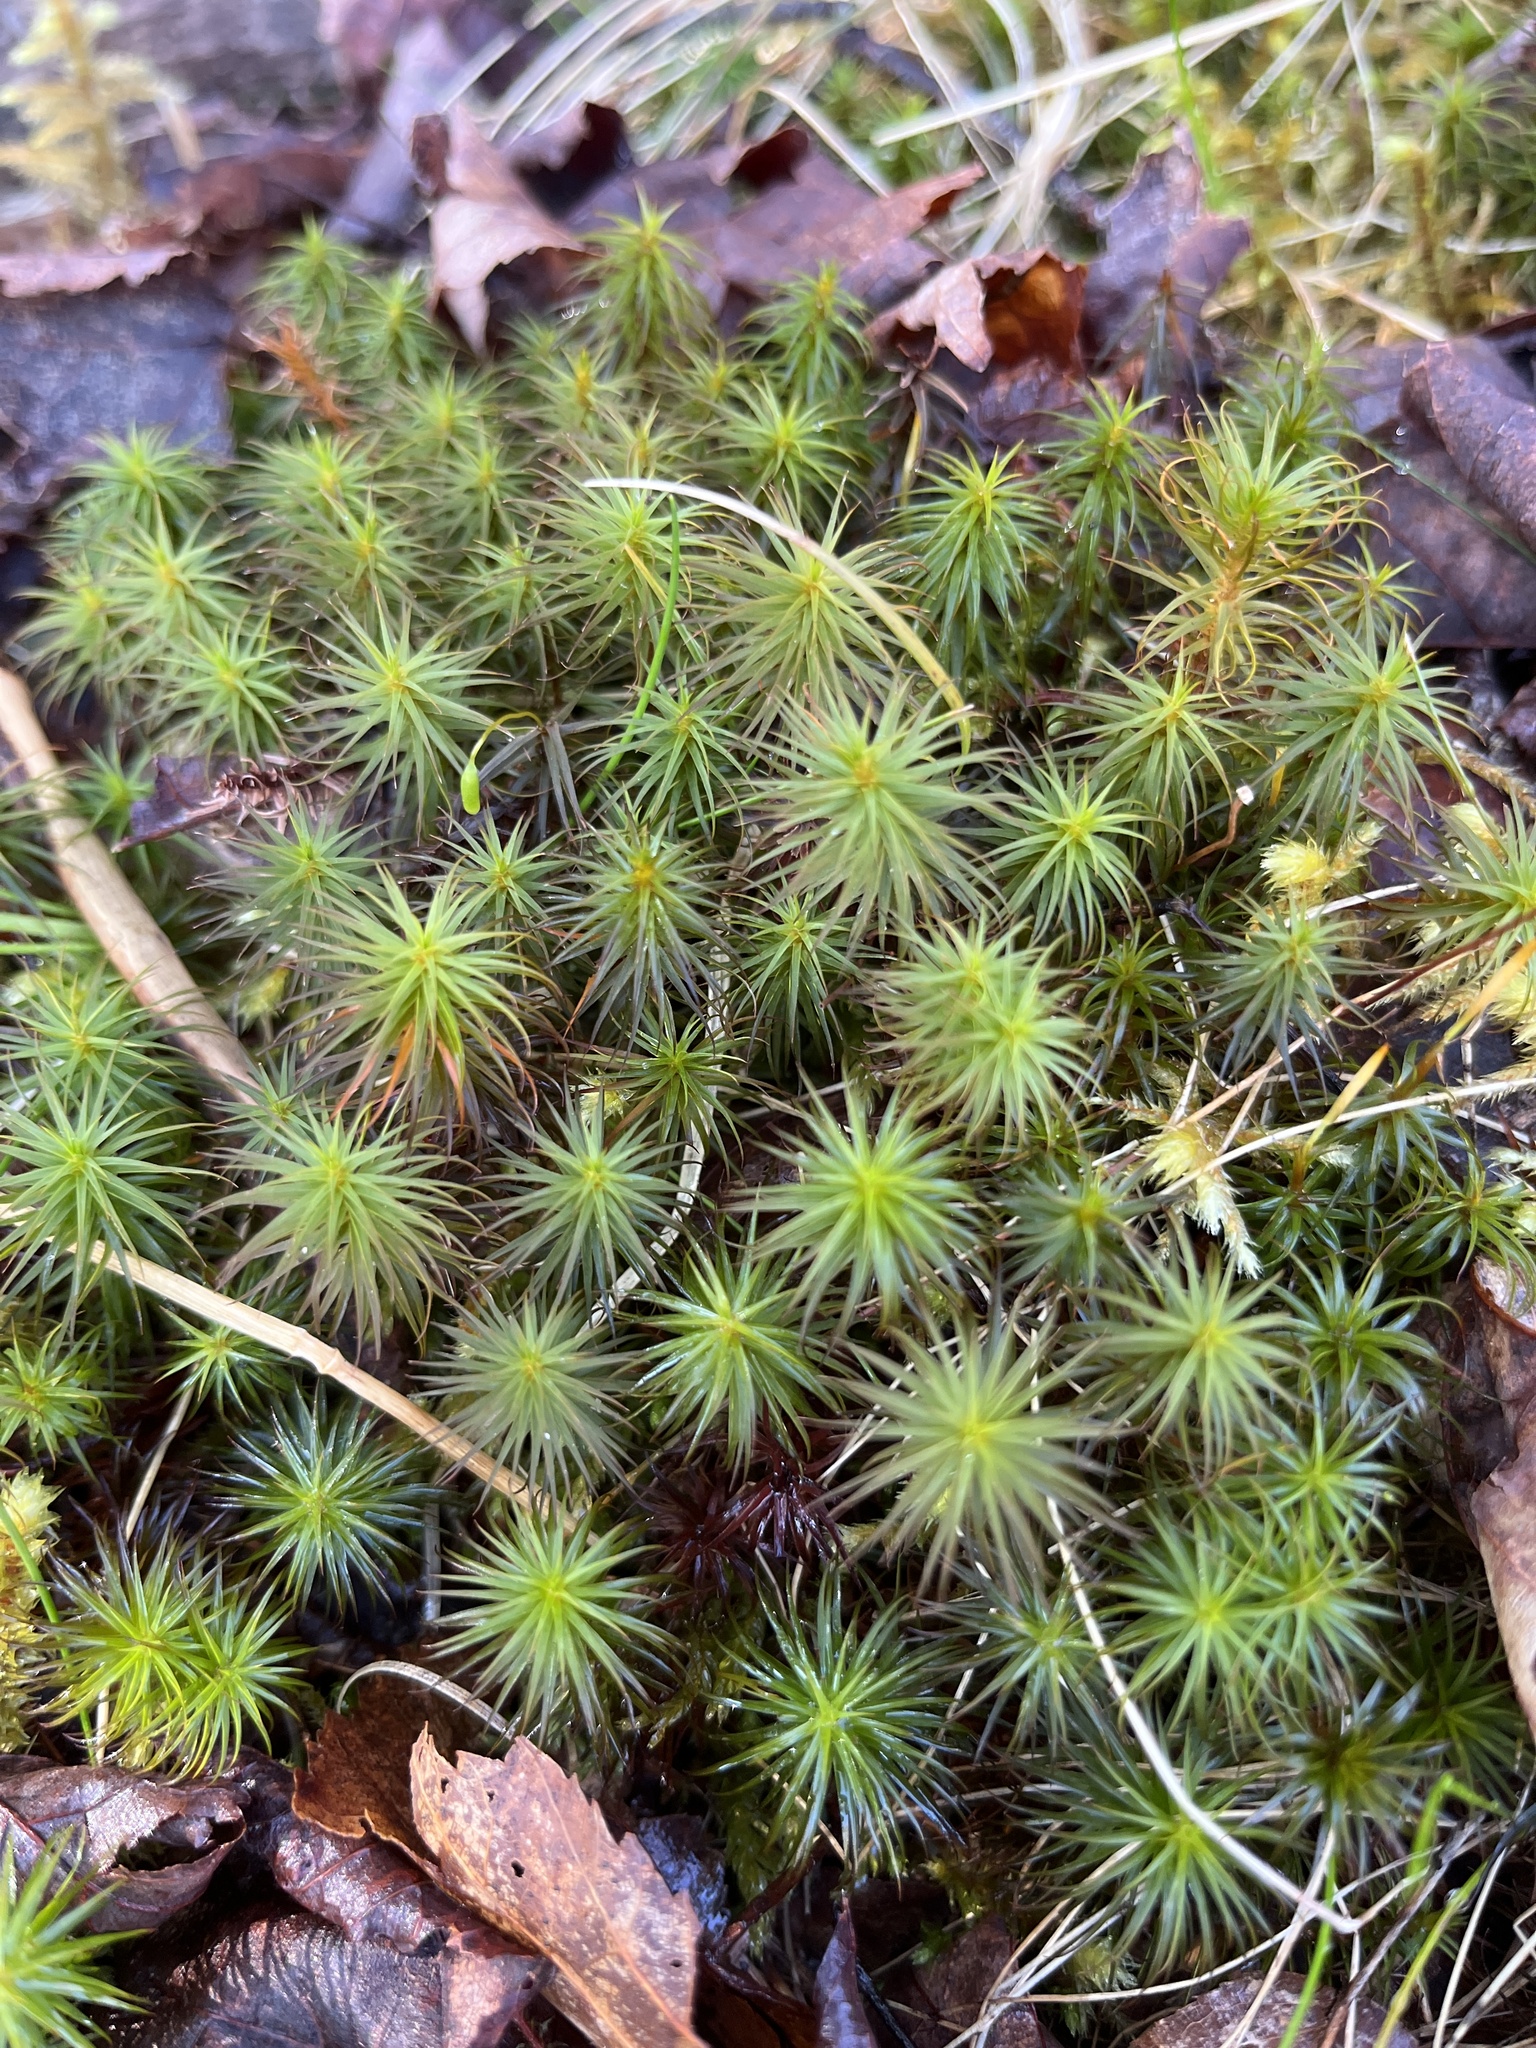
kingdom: Plantae
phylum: Bryophyta
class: Polytrichopsida
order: Polytrichales
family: Polytrichaceae
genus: Polytrichum
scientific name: Polytrichum commune
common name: Common haircap
